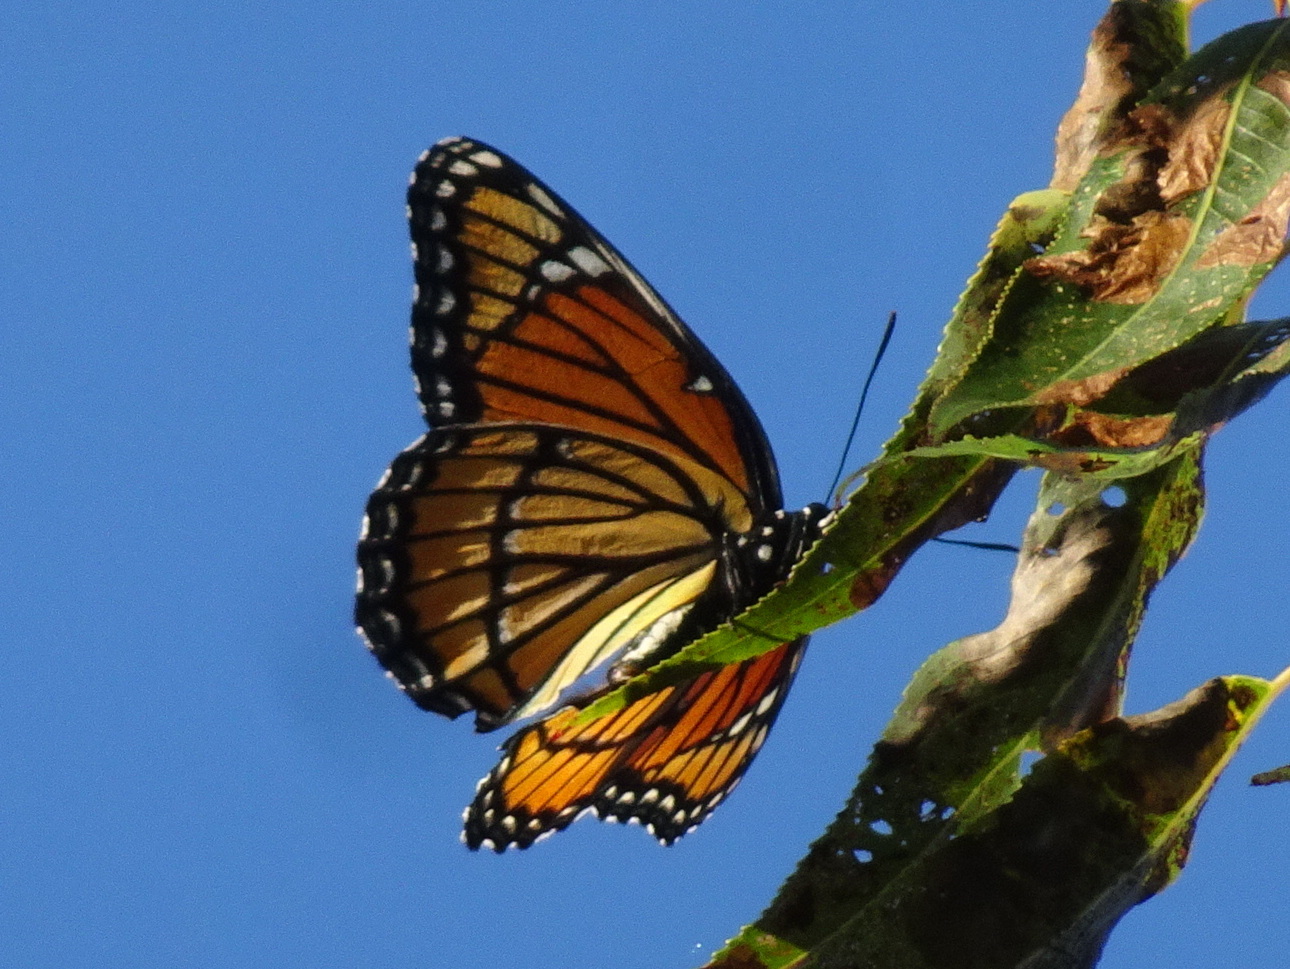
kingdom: Animalia
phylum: Arthropoda
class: Insecta
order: Lepidoptera
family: Nymphalidae
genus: Limenitis
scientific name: Limenitis archippus
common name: Viceroy
